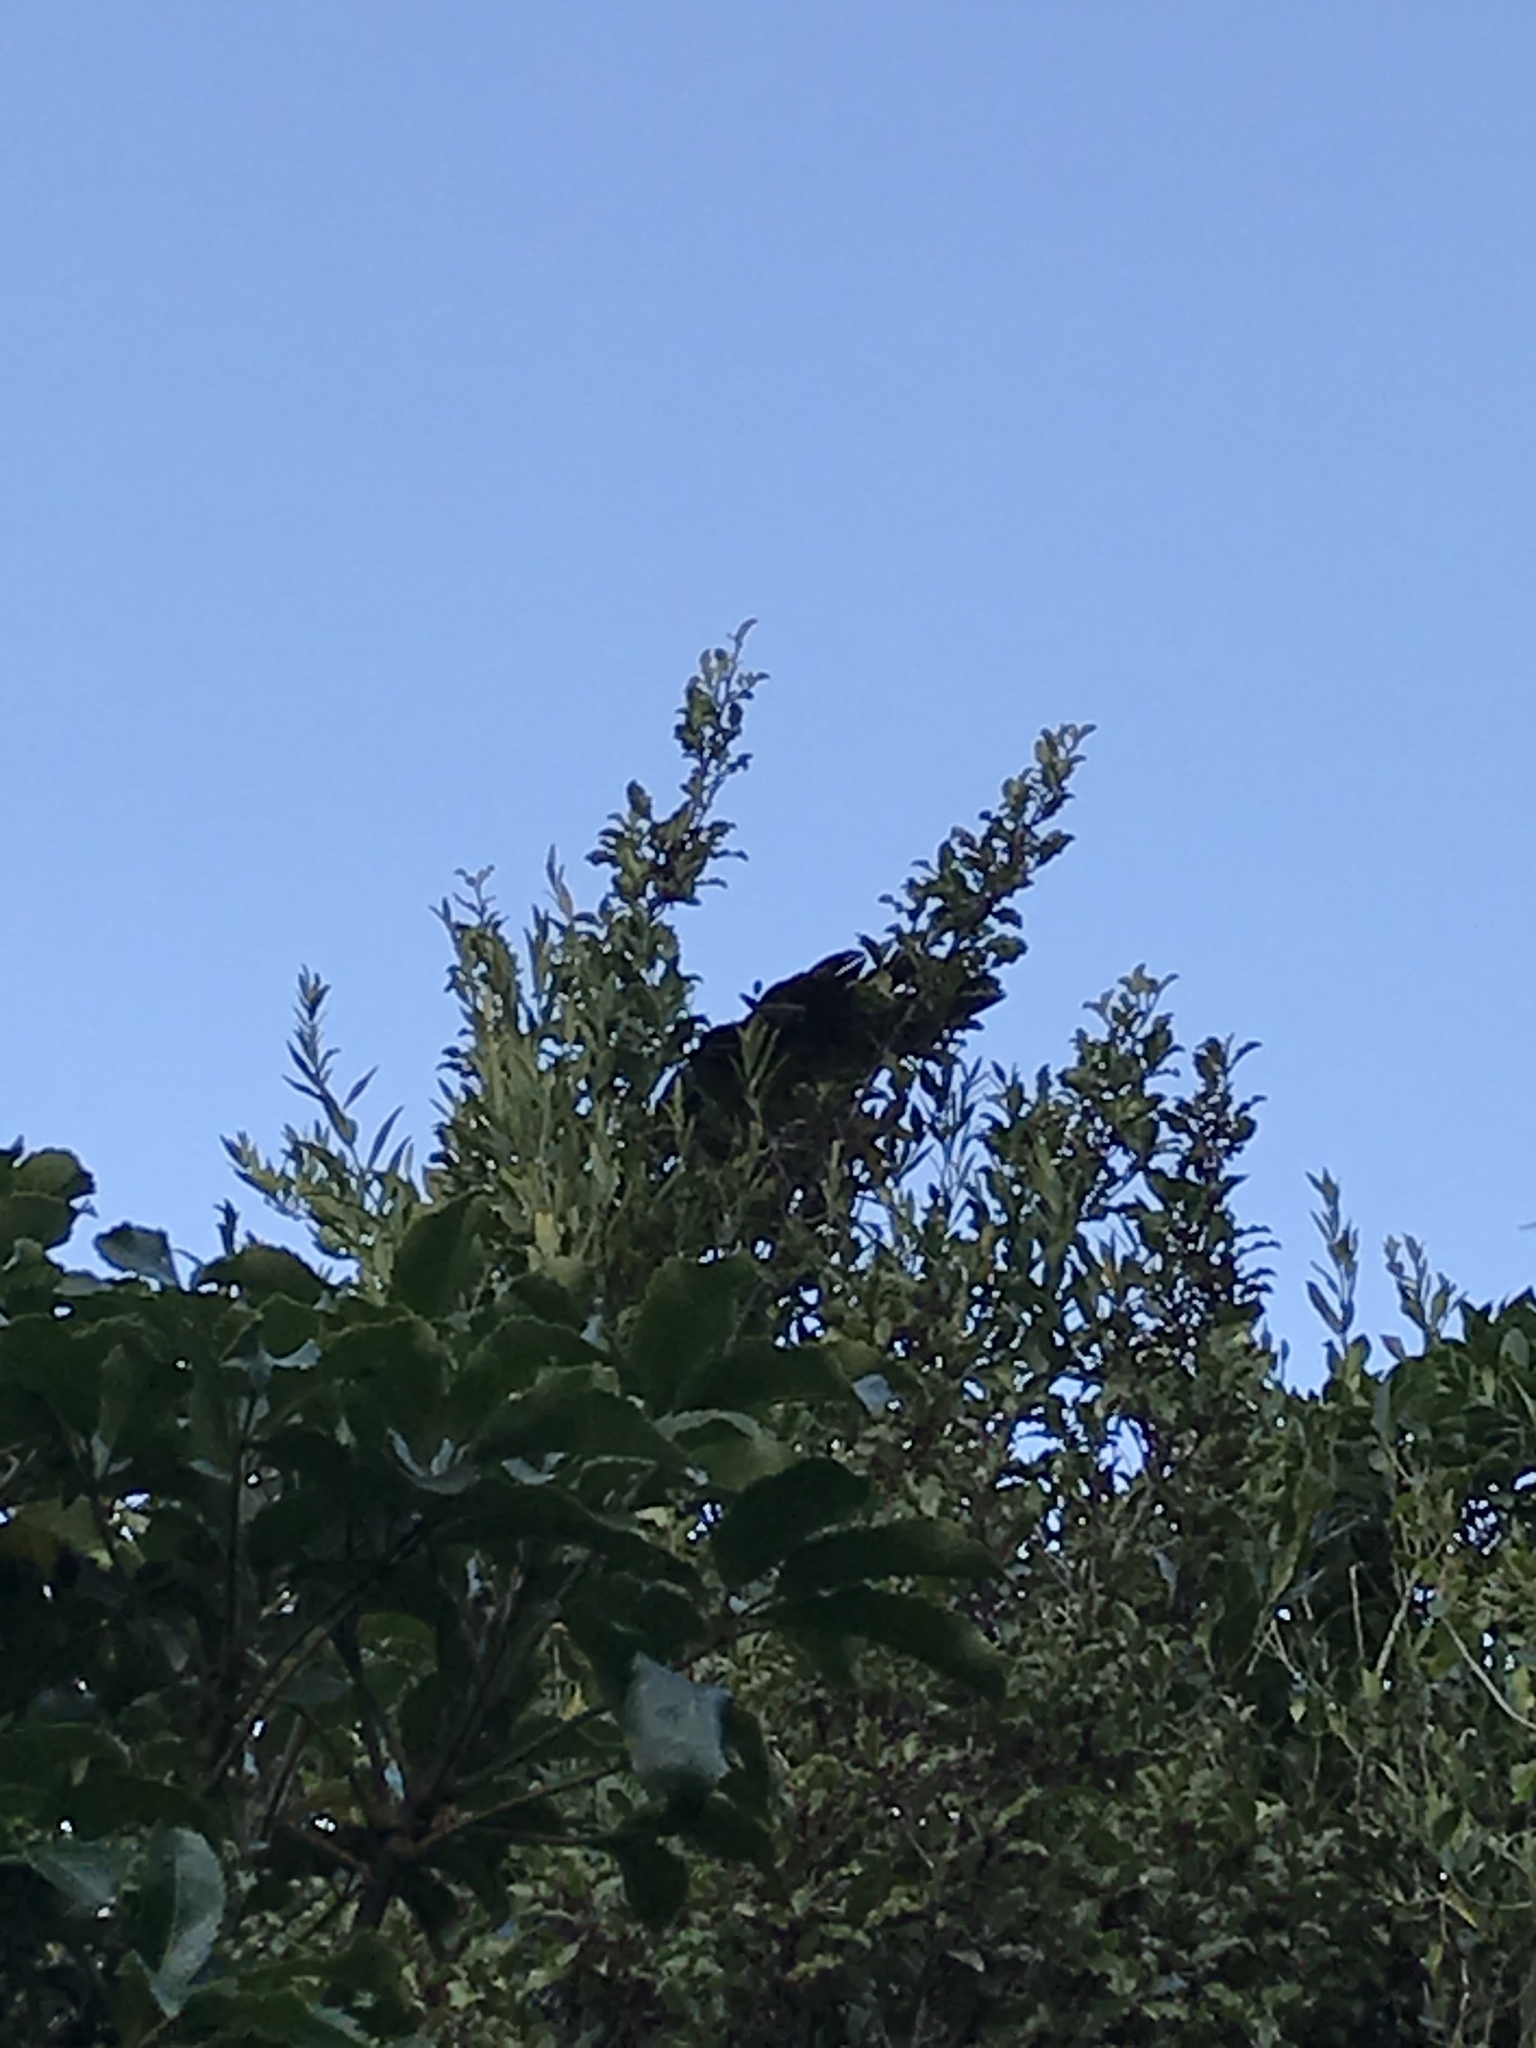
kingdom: Animalia
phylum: Chordata
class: Aves
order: Columbiformes
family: Columbidae
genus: Hemiphaga
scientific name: Hemiphaga novaeseelandiae
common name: New zealand pigeon
